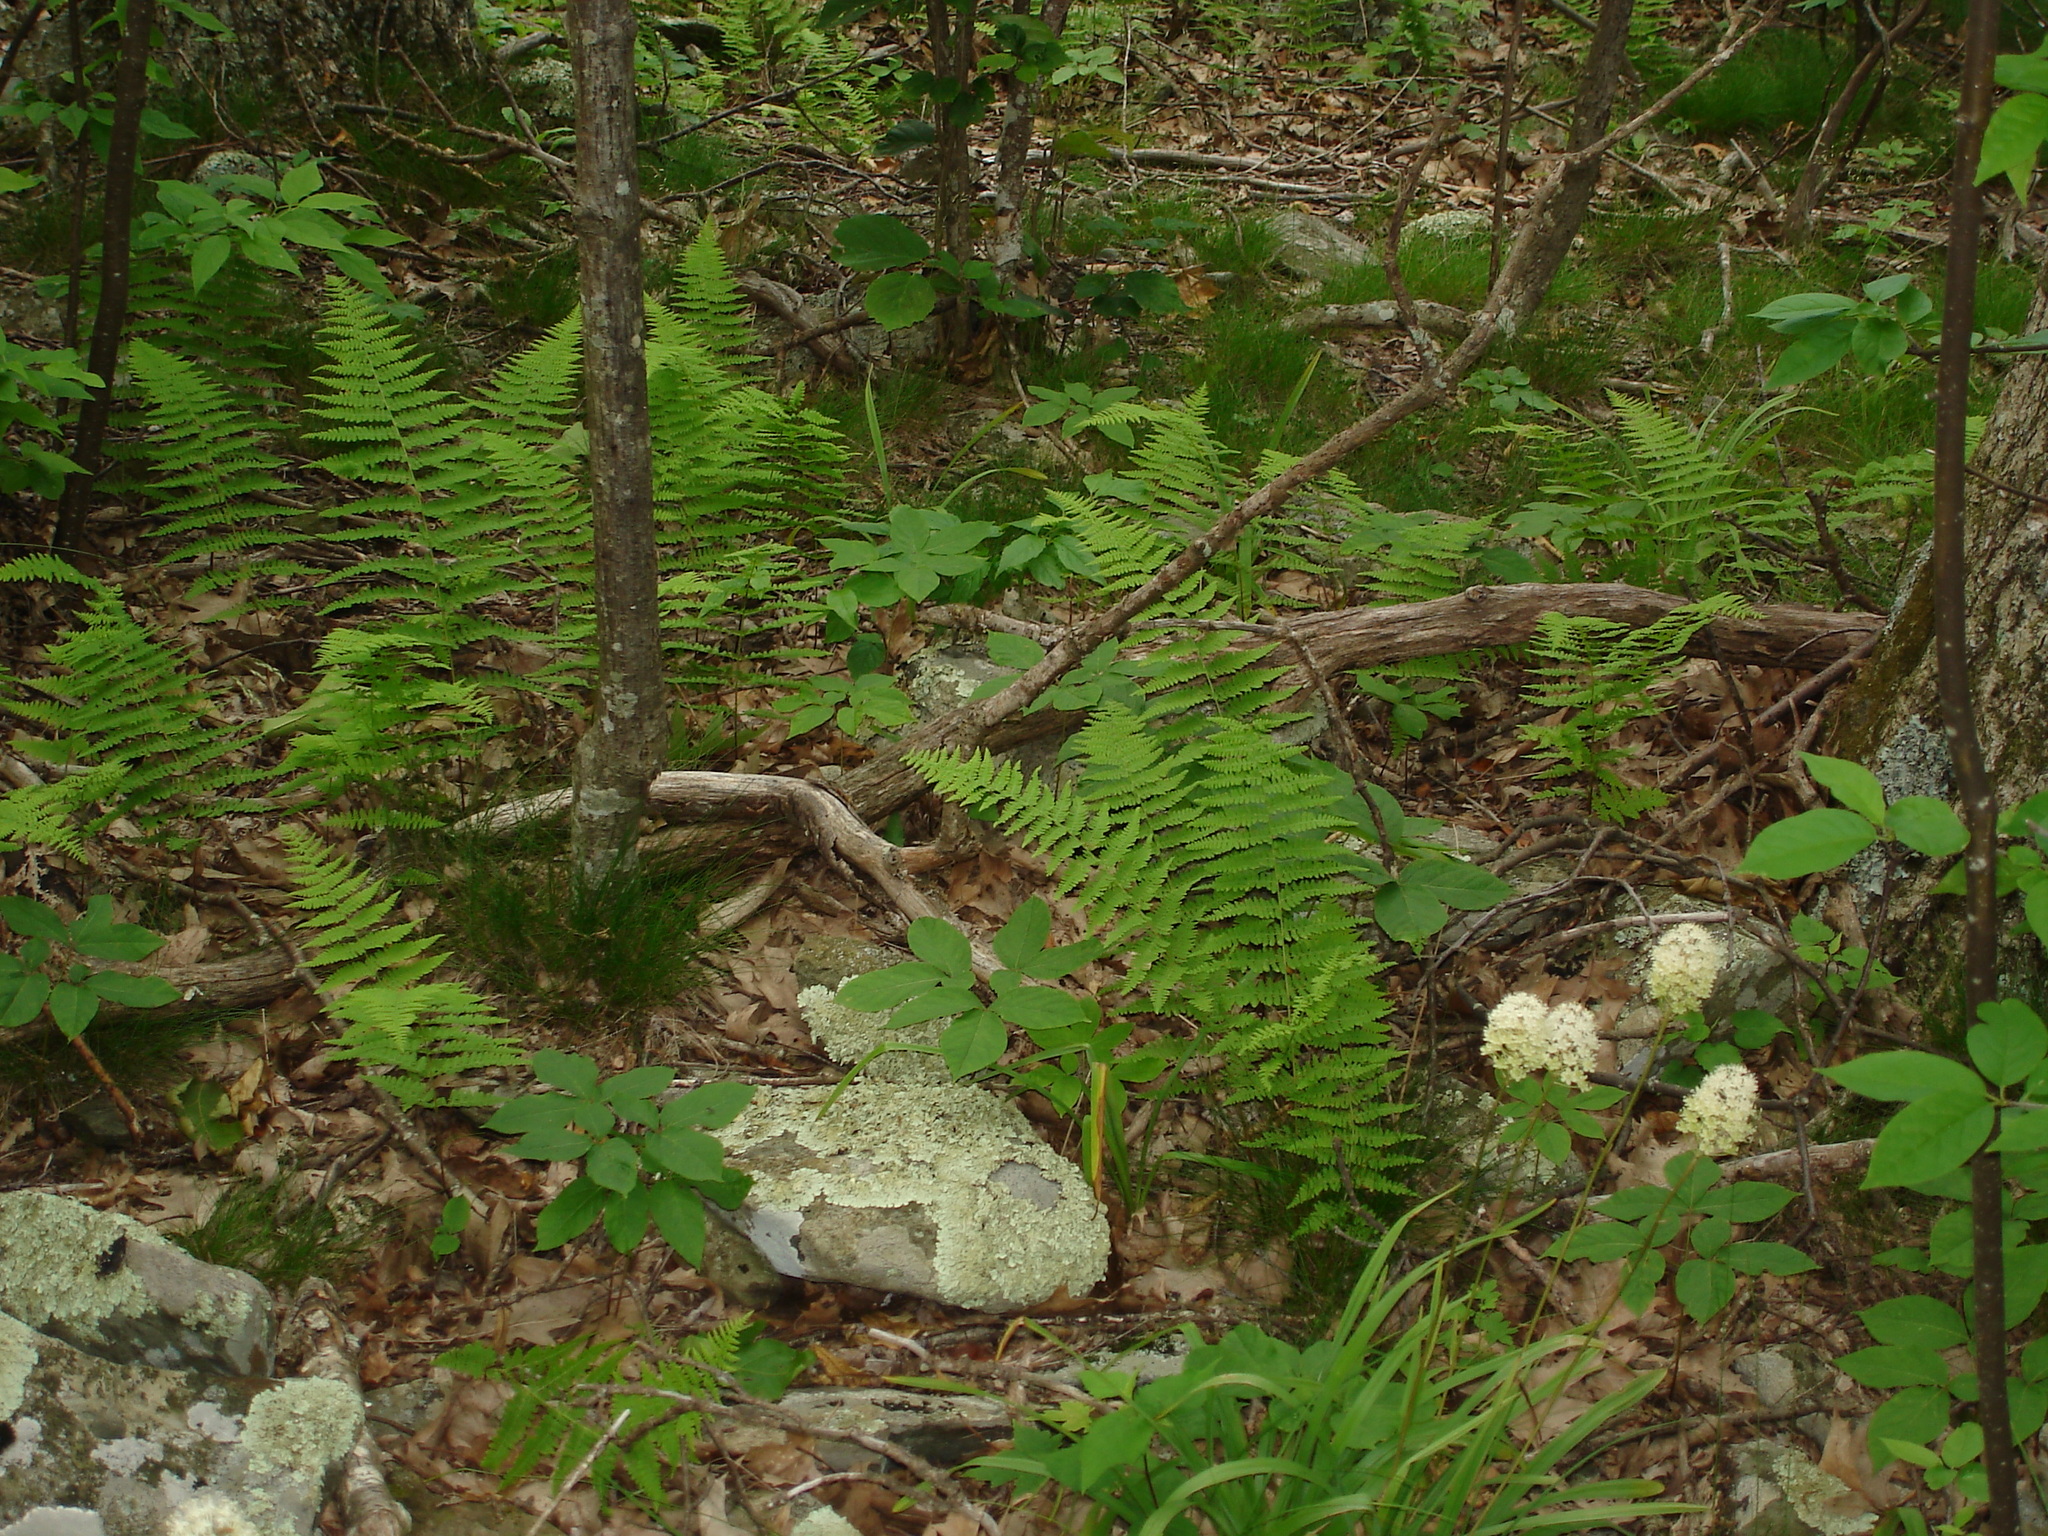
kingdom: Plantae
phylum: Tracheophyta
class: Polypodiopsida
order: Polypodiales
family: Thelypteridaceae
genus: Amauropelta
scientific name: Amauropelta noveboracensis
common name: New york fern
